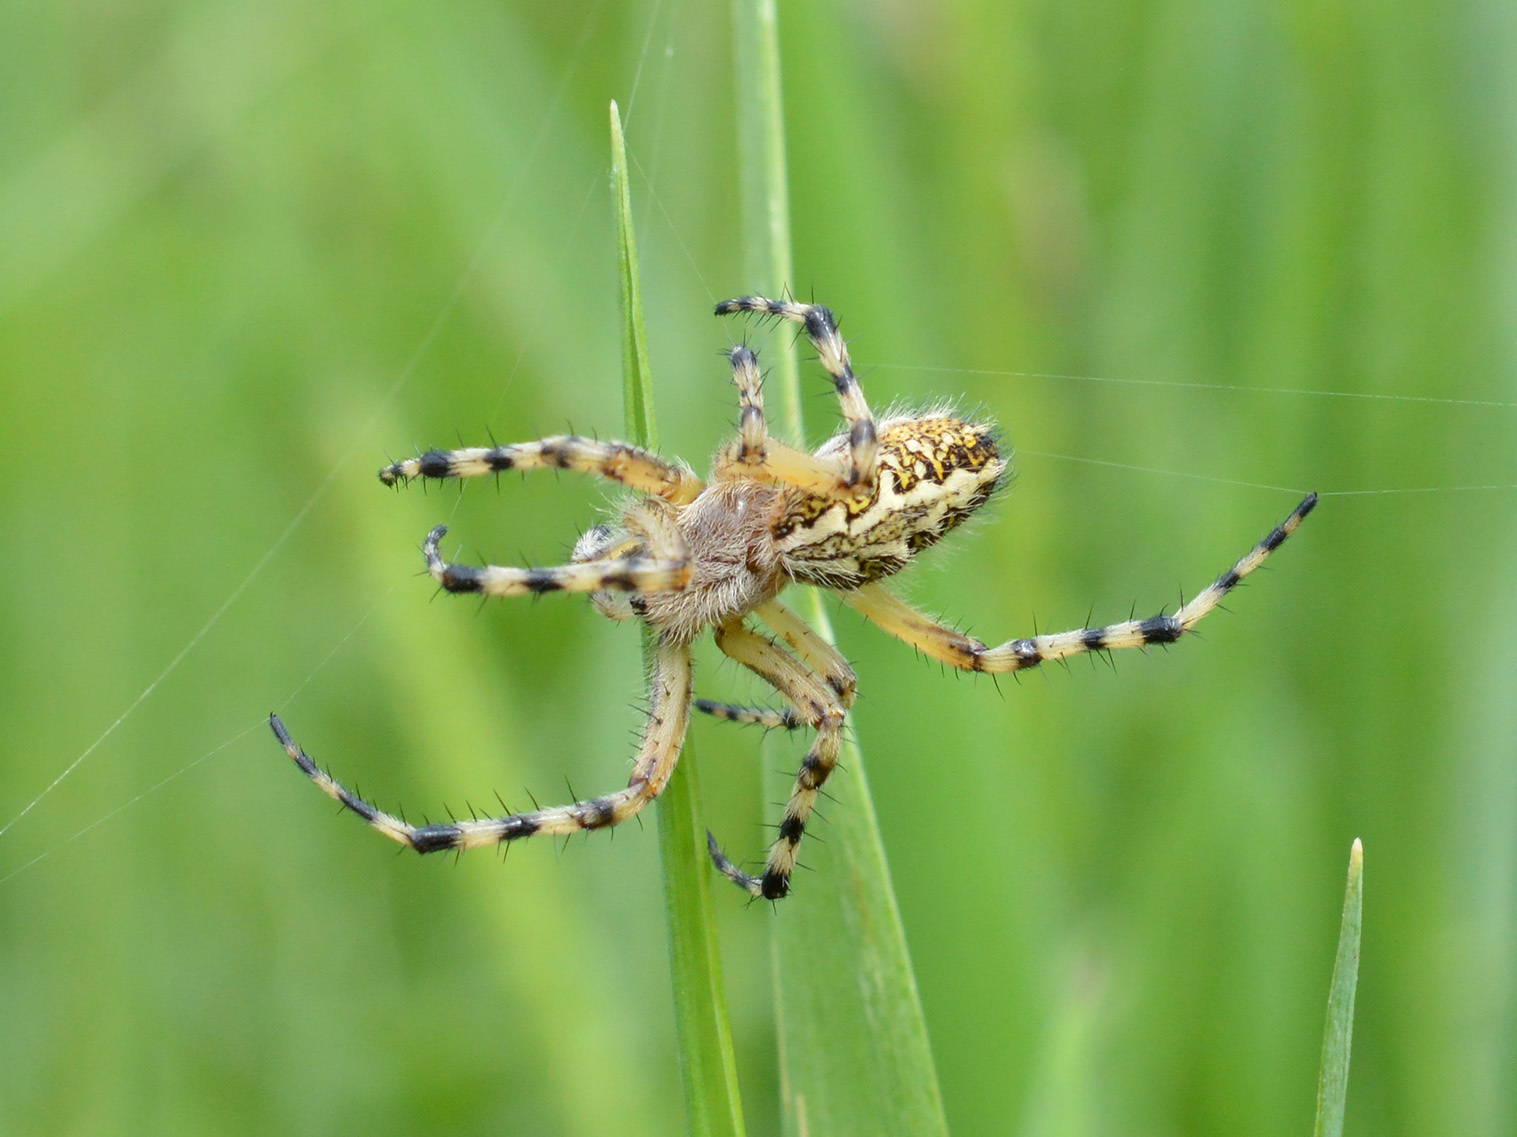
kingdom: Animalia
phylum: Arthropoda
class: Arachnida
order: Araneae
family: Araneidae
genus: Aculepeira
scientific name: Aculepeira ceropegia
